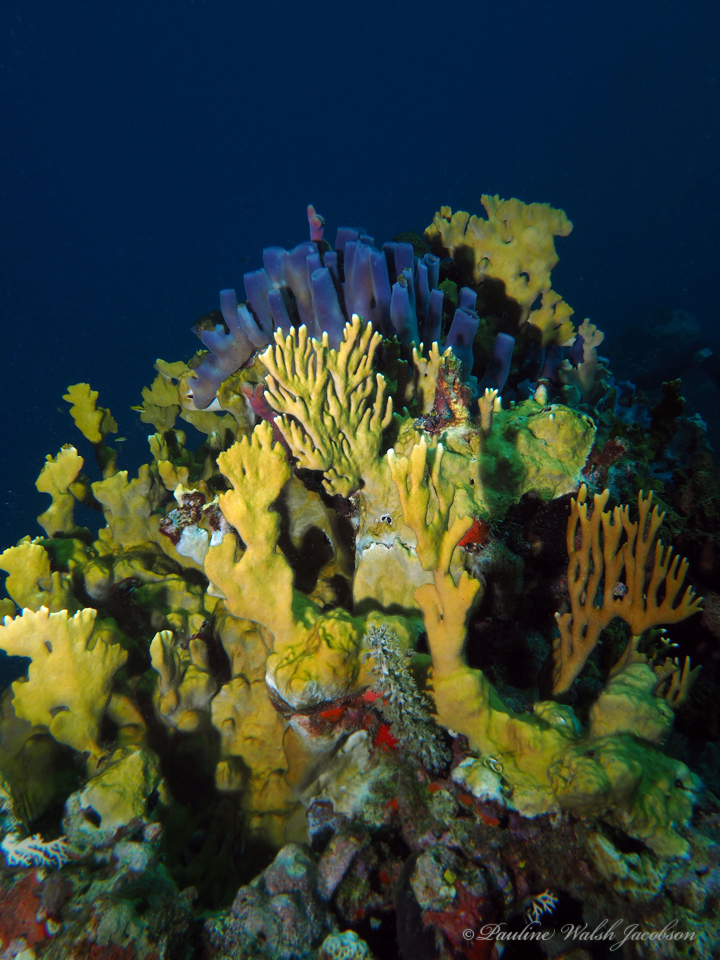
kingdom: Animalia
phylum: Porifera
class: Demospongiae
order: Haplosclerida
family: Callyspongiidae
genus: Callyspongia
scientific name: Callyspongia fallax
